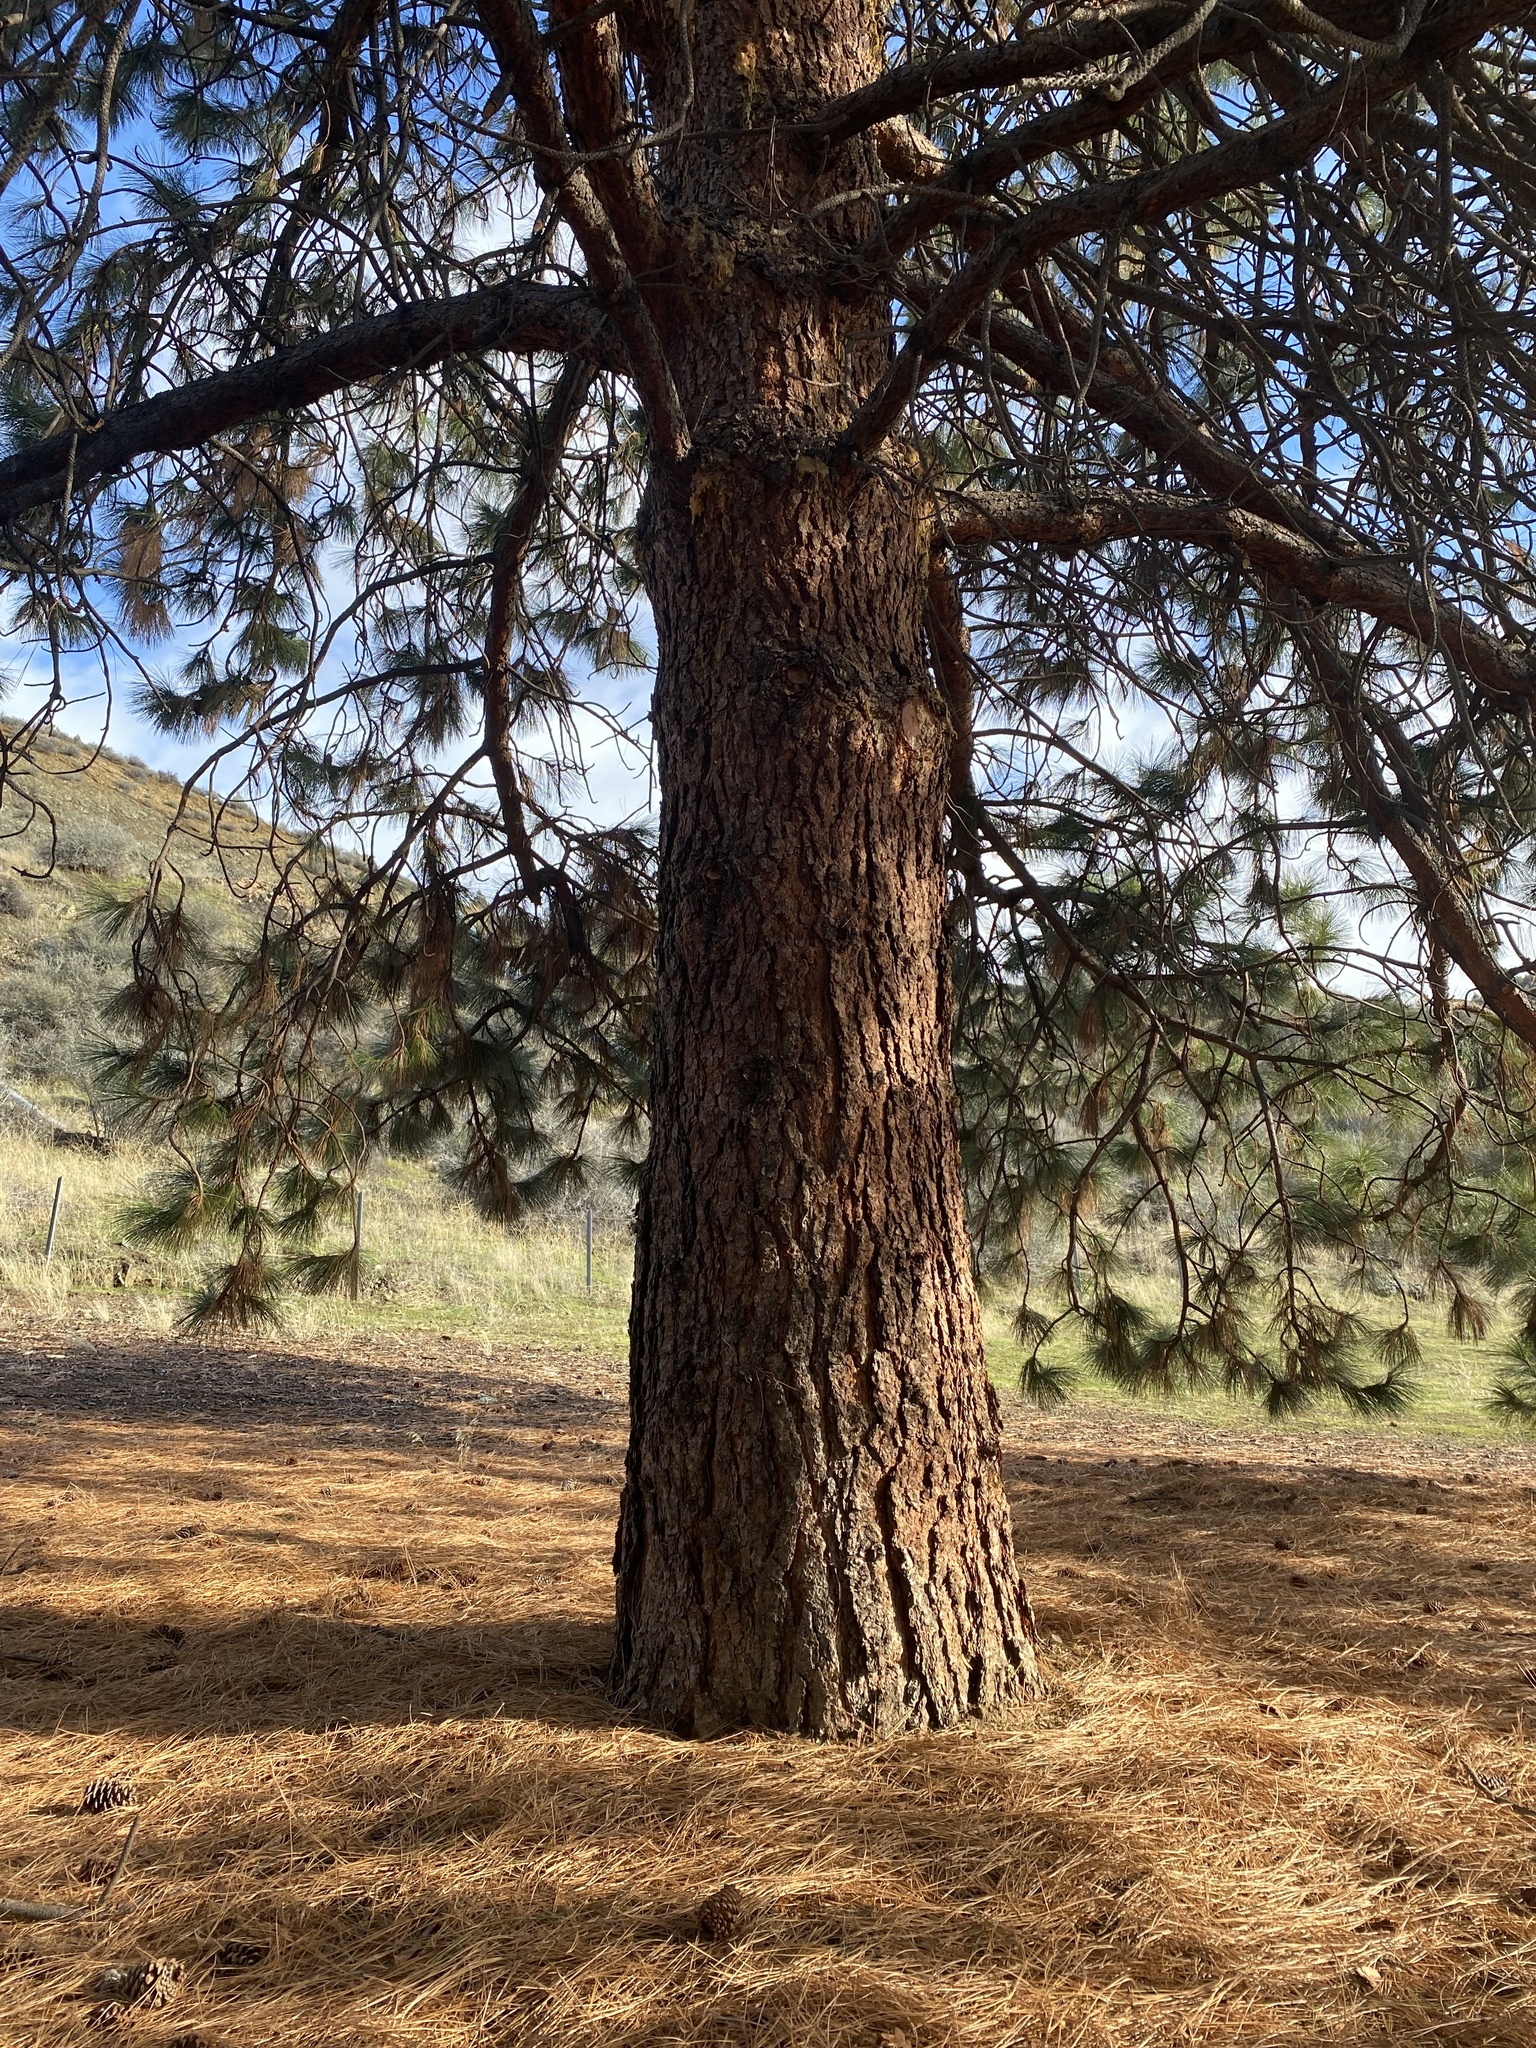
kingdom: Plantae
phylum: Tracheophyta
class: Pinopsida
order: Pinales
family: Pinaceae
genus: Pinus
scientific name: Pinus ponderosa
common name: Western yellow-pine
